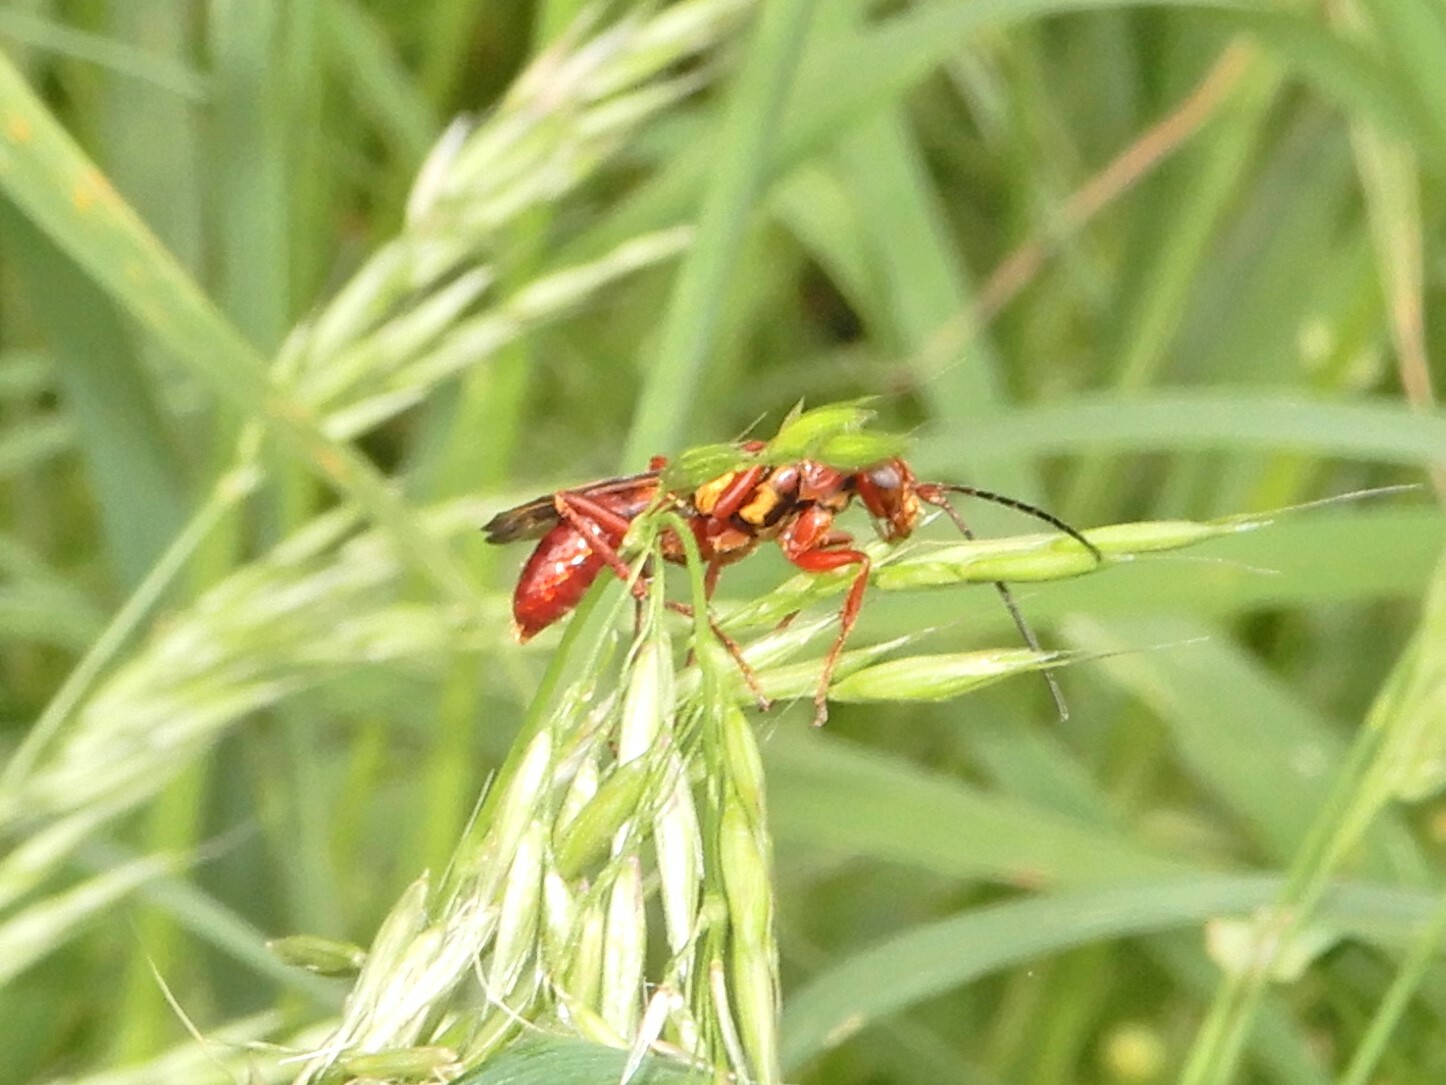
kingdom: Animalia
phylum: Arthropoda
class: Insecta
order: Hymenoptera
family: Pompilidae
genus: Sphictostethus
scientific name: Sphictostethus nitidus
